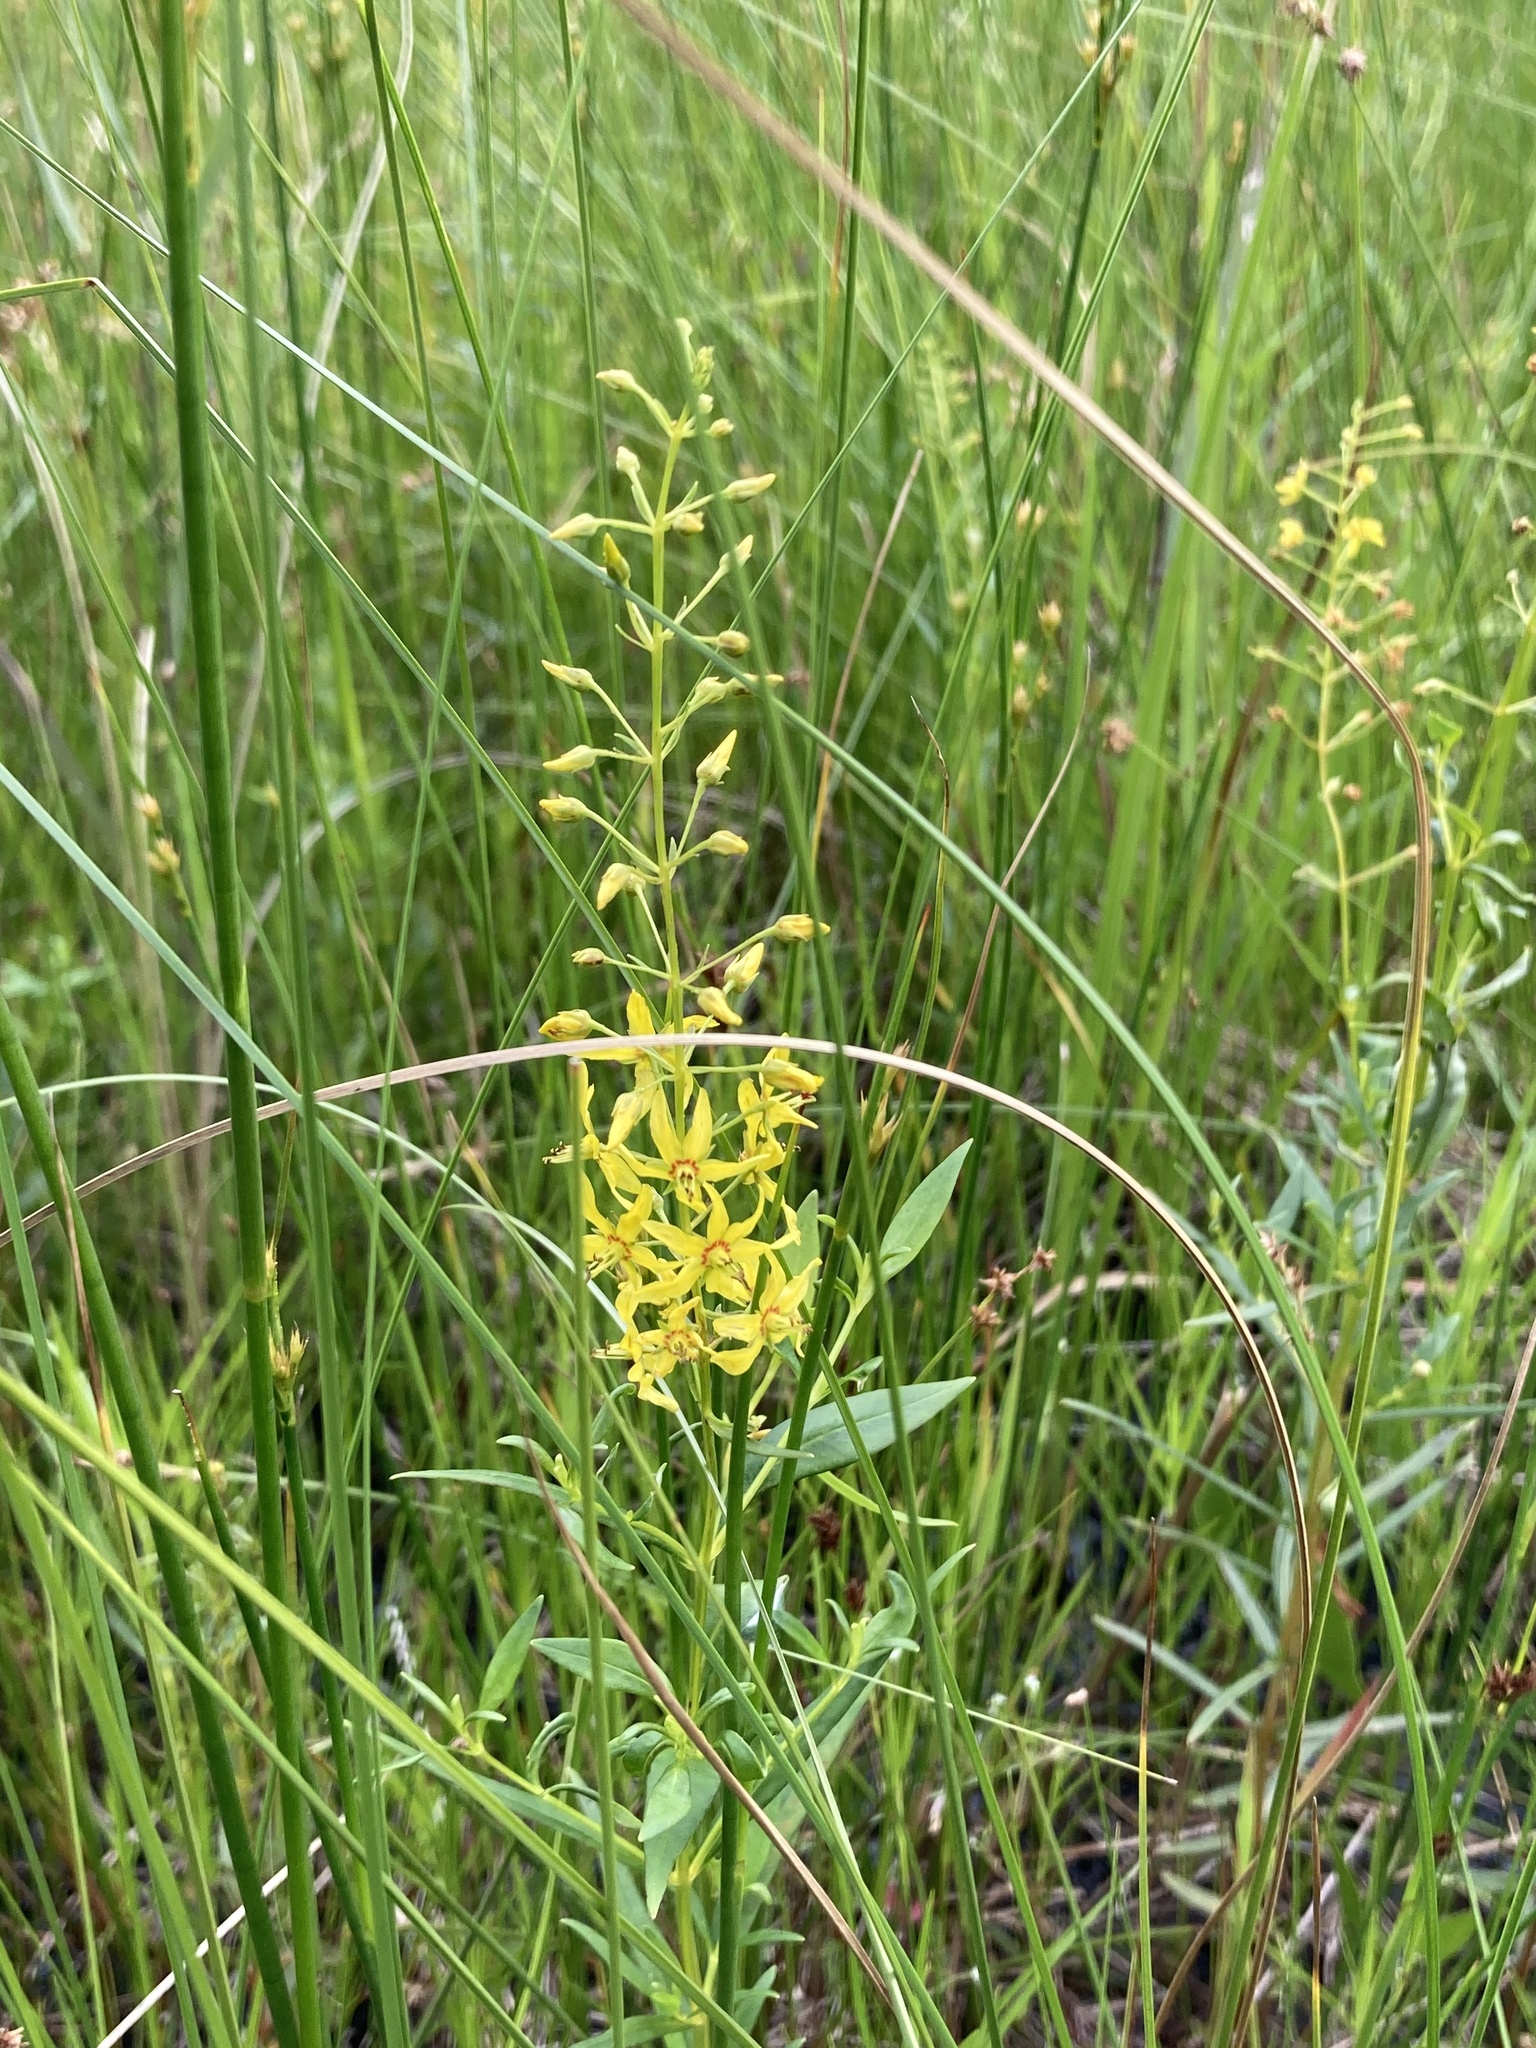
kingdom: Plantae
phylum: Tracheophyta
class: Magnoliopsida
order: Ericales
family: Primulaceae
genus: Lysimachia
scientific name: Lysimachia terrestris
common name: Lake loosestrife
